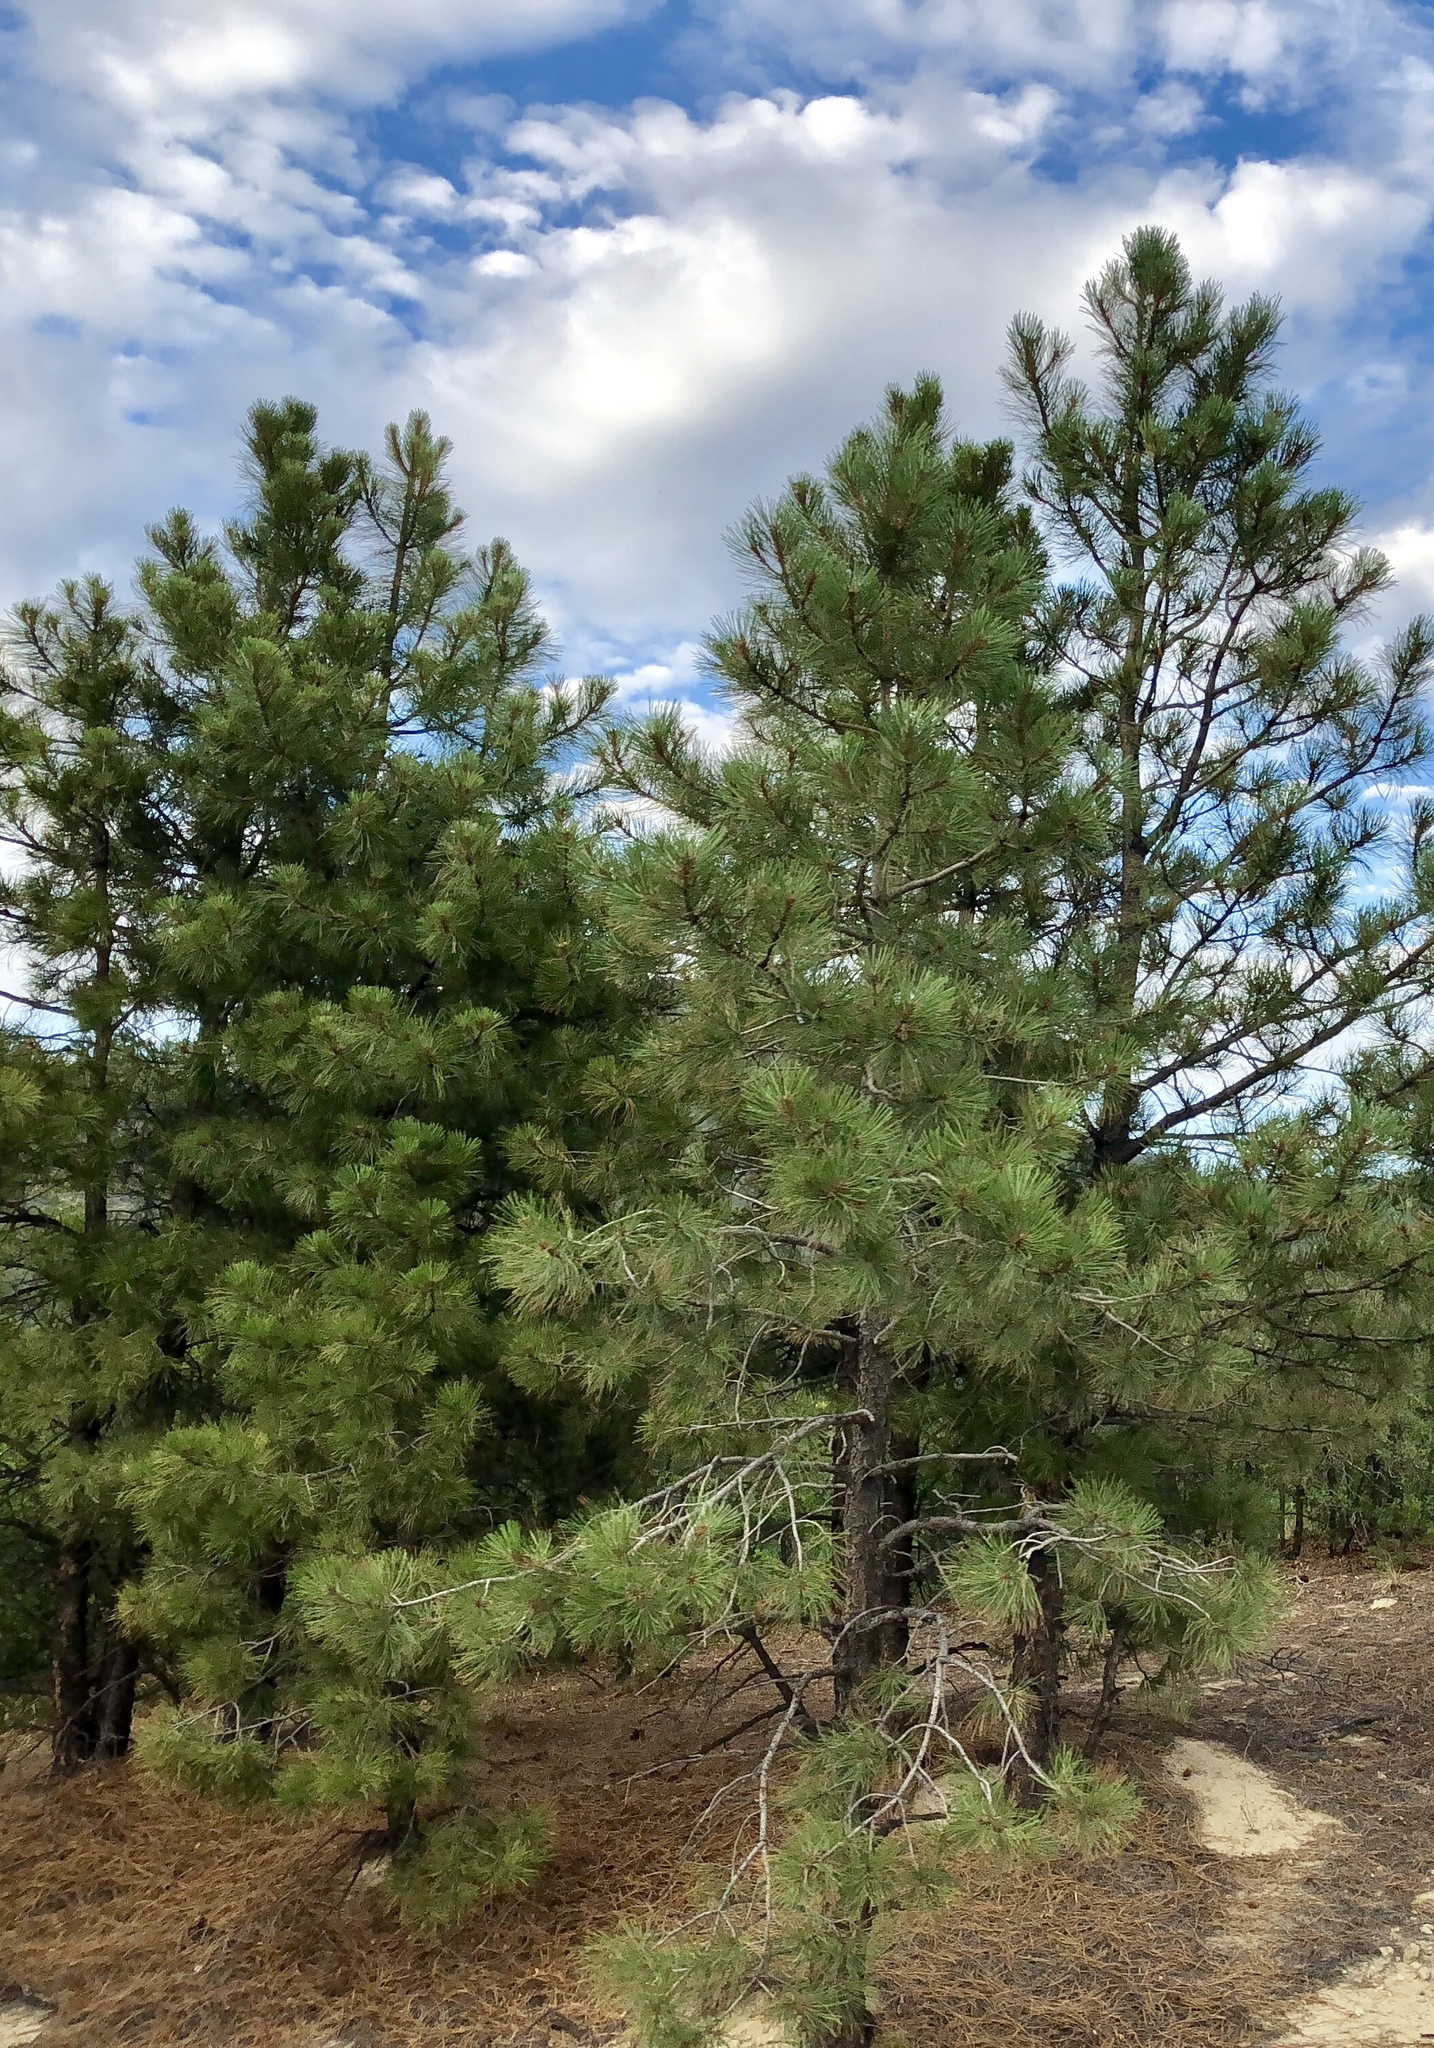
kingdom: Plantae
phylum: Tracheophyta
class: Pinopsida
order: Pinales
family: Pinaceae
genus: Pinus
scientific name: Pinus ponderosa
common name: Western yellow-pine
